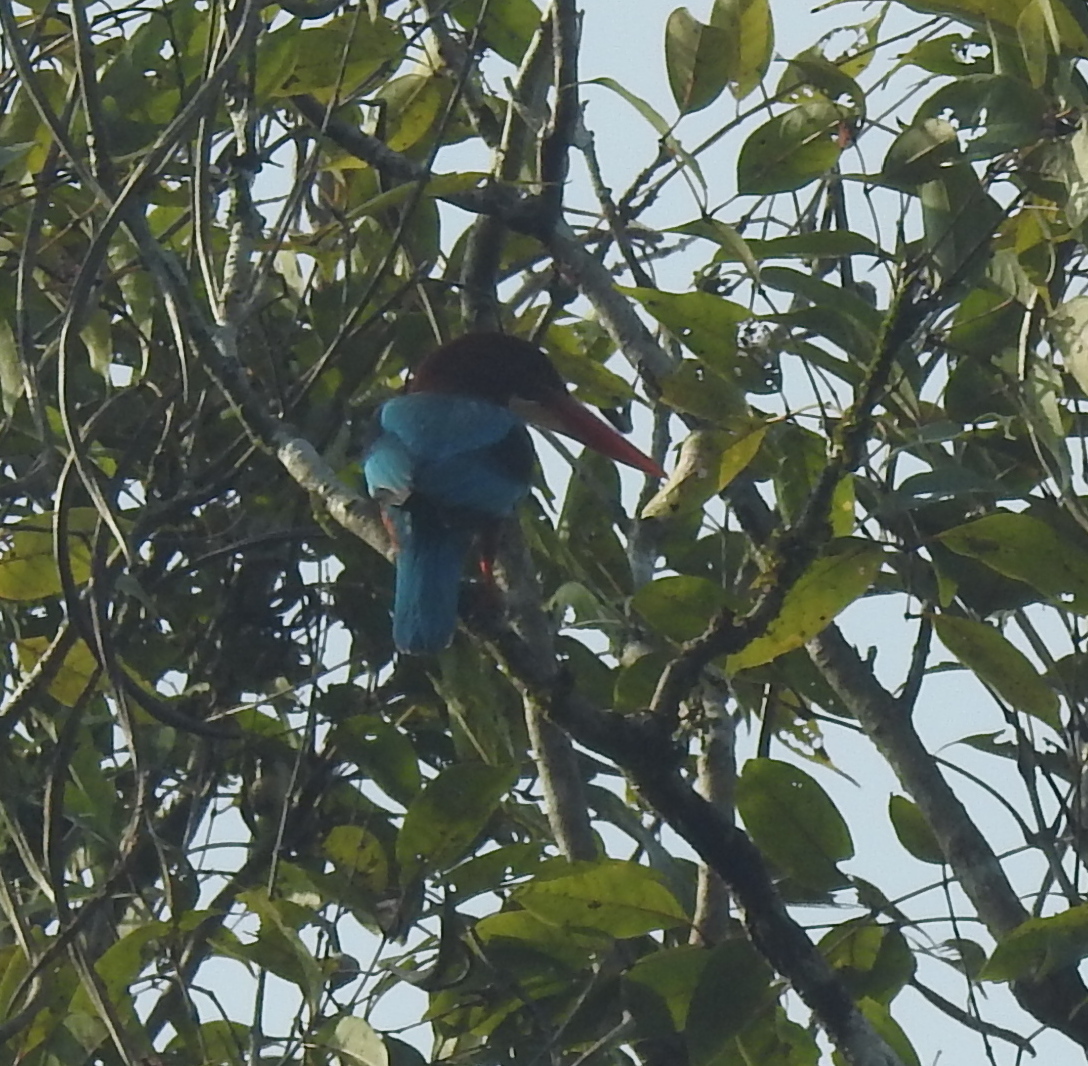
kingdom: Animalia
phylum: Chordata
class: Aves
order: Coraciiformes
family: Alcedinidae
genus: Halcyon
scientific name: Halcyon smyrnensis
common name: White-throated kingfisher
